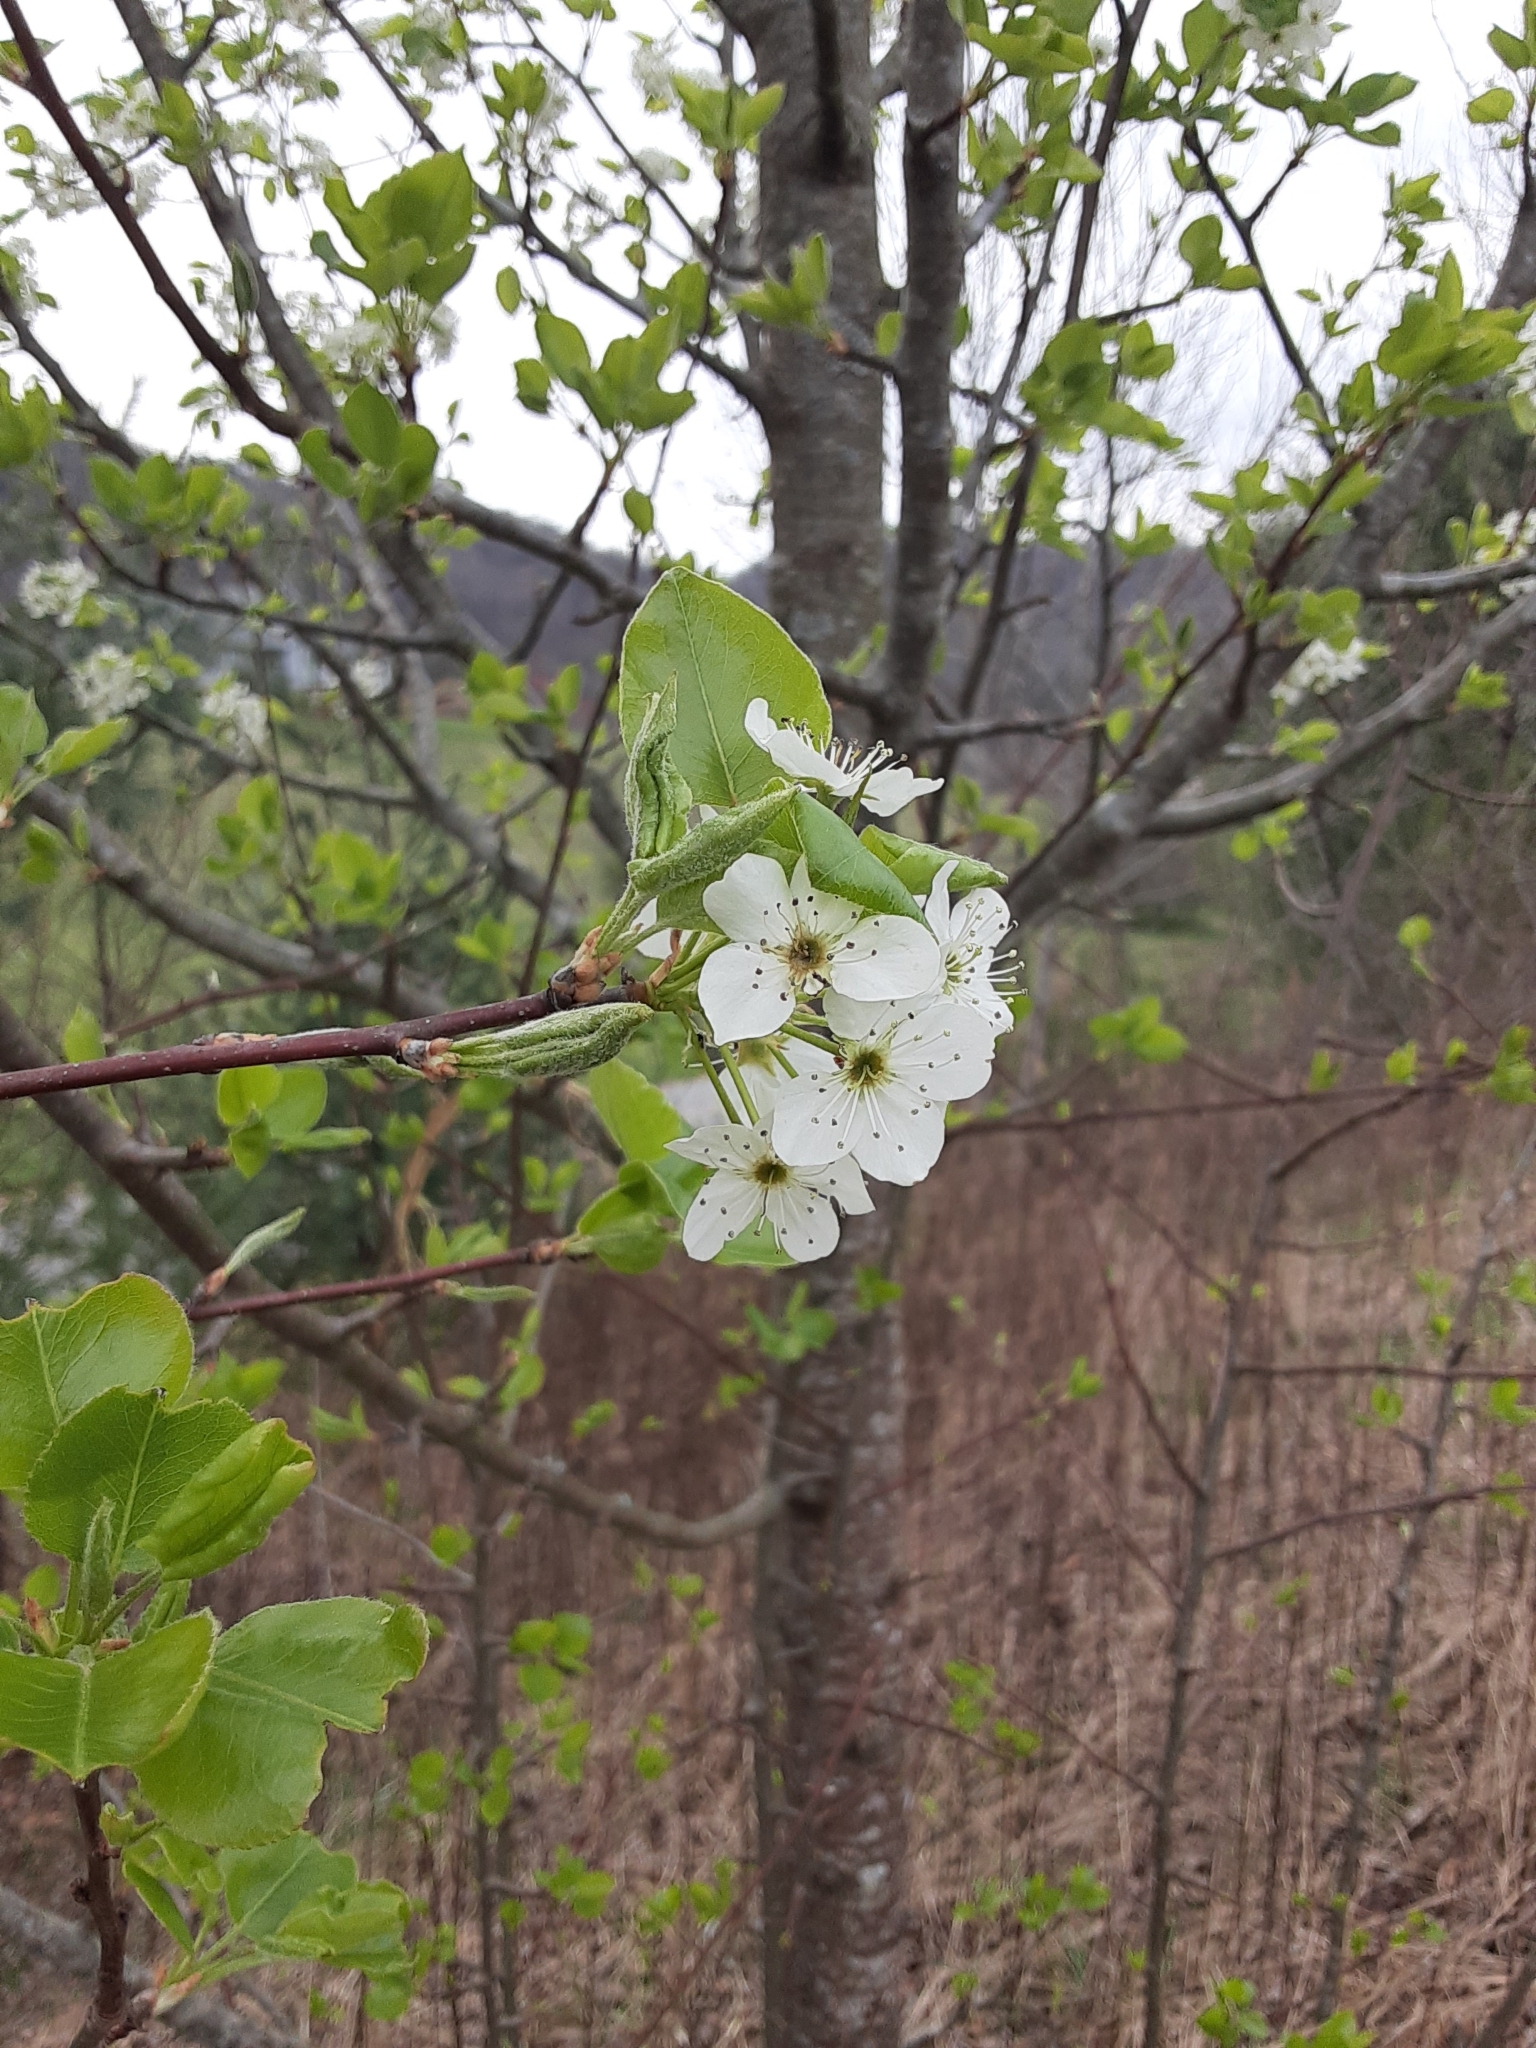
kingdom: Plantae
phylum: Tracheophyta
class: Magnoliopsida
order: Rosales
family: Rosaceae
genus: Pyrus
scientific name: Pyrus calleryana
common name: Callery pear
